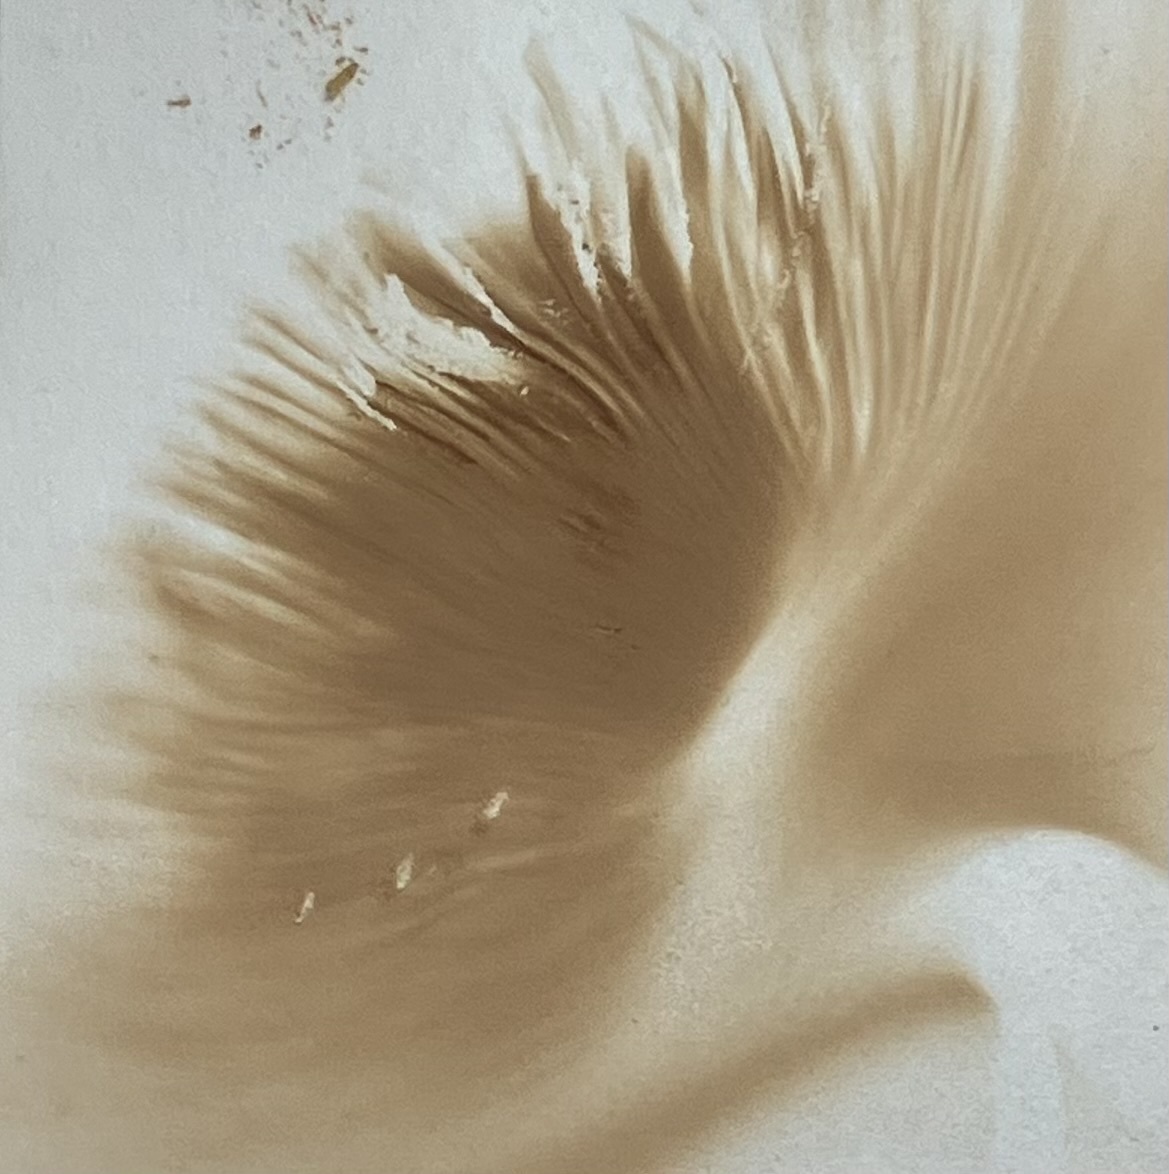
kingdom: Fungi
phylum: Basidiomycota
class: Agaricomycetes
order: Agaricales
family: Pluteaceae
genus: Pluteus
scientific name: Pluteus petasatus
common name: Scaly shield
